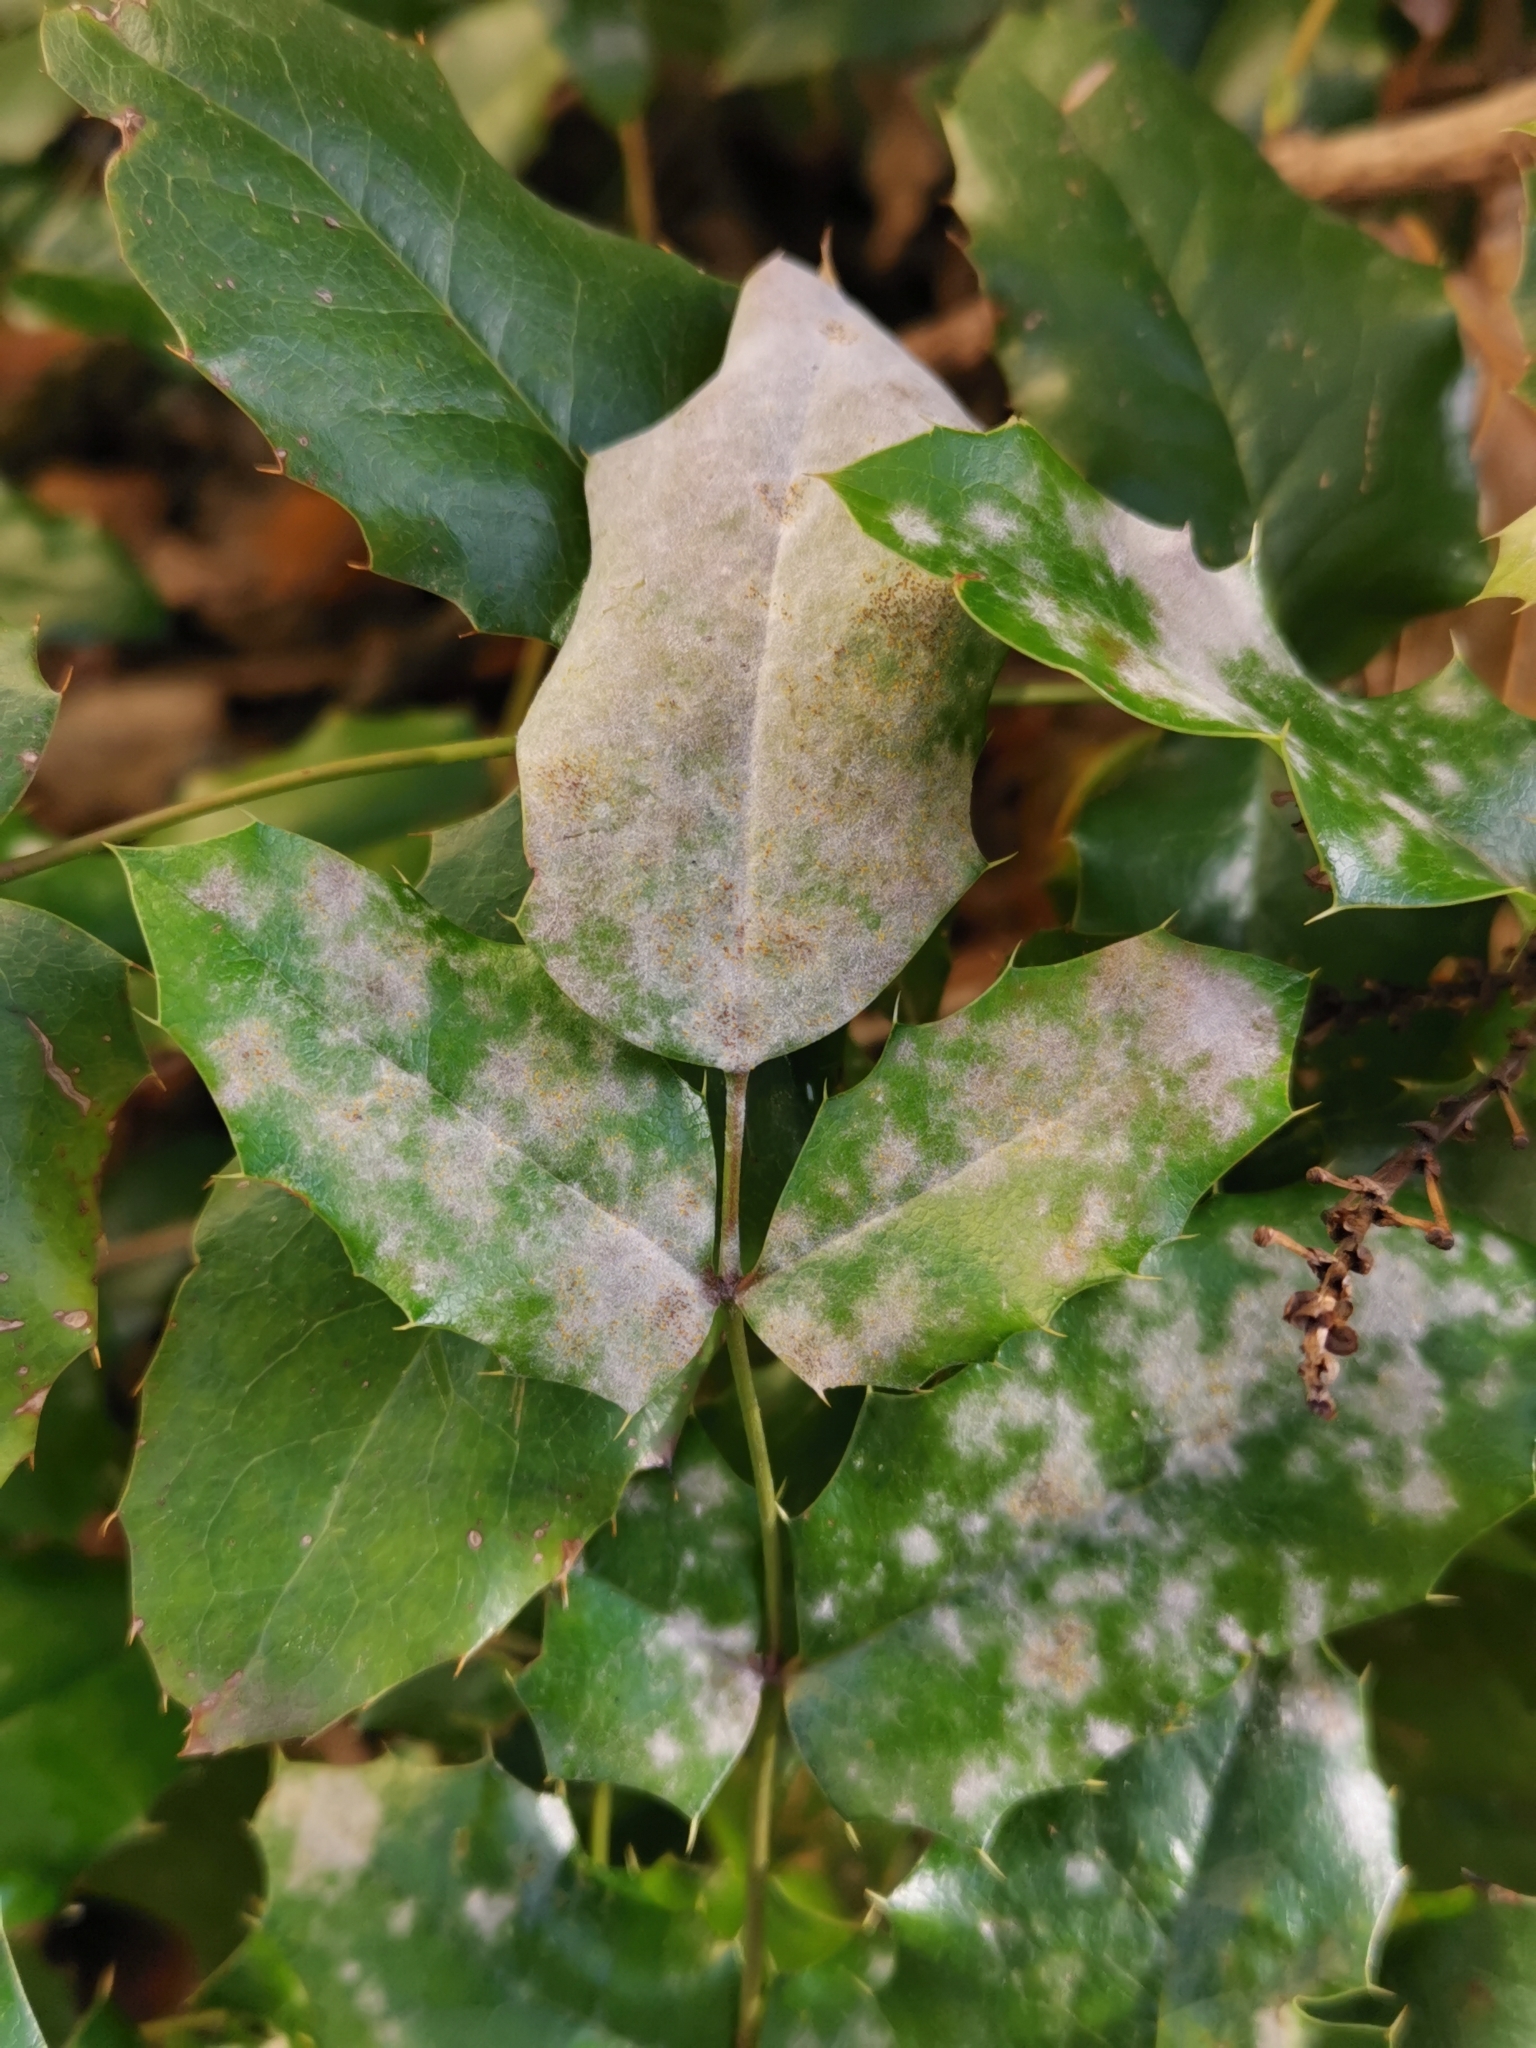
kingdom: Fungi
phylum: Ascomycota
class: Leotiomycetes
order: Helotiales
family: Erysiphaceae
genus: Erysiphe
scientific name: Erysiphe berberidis
